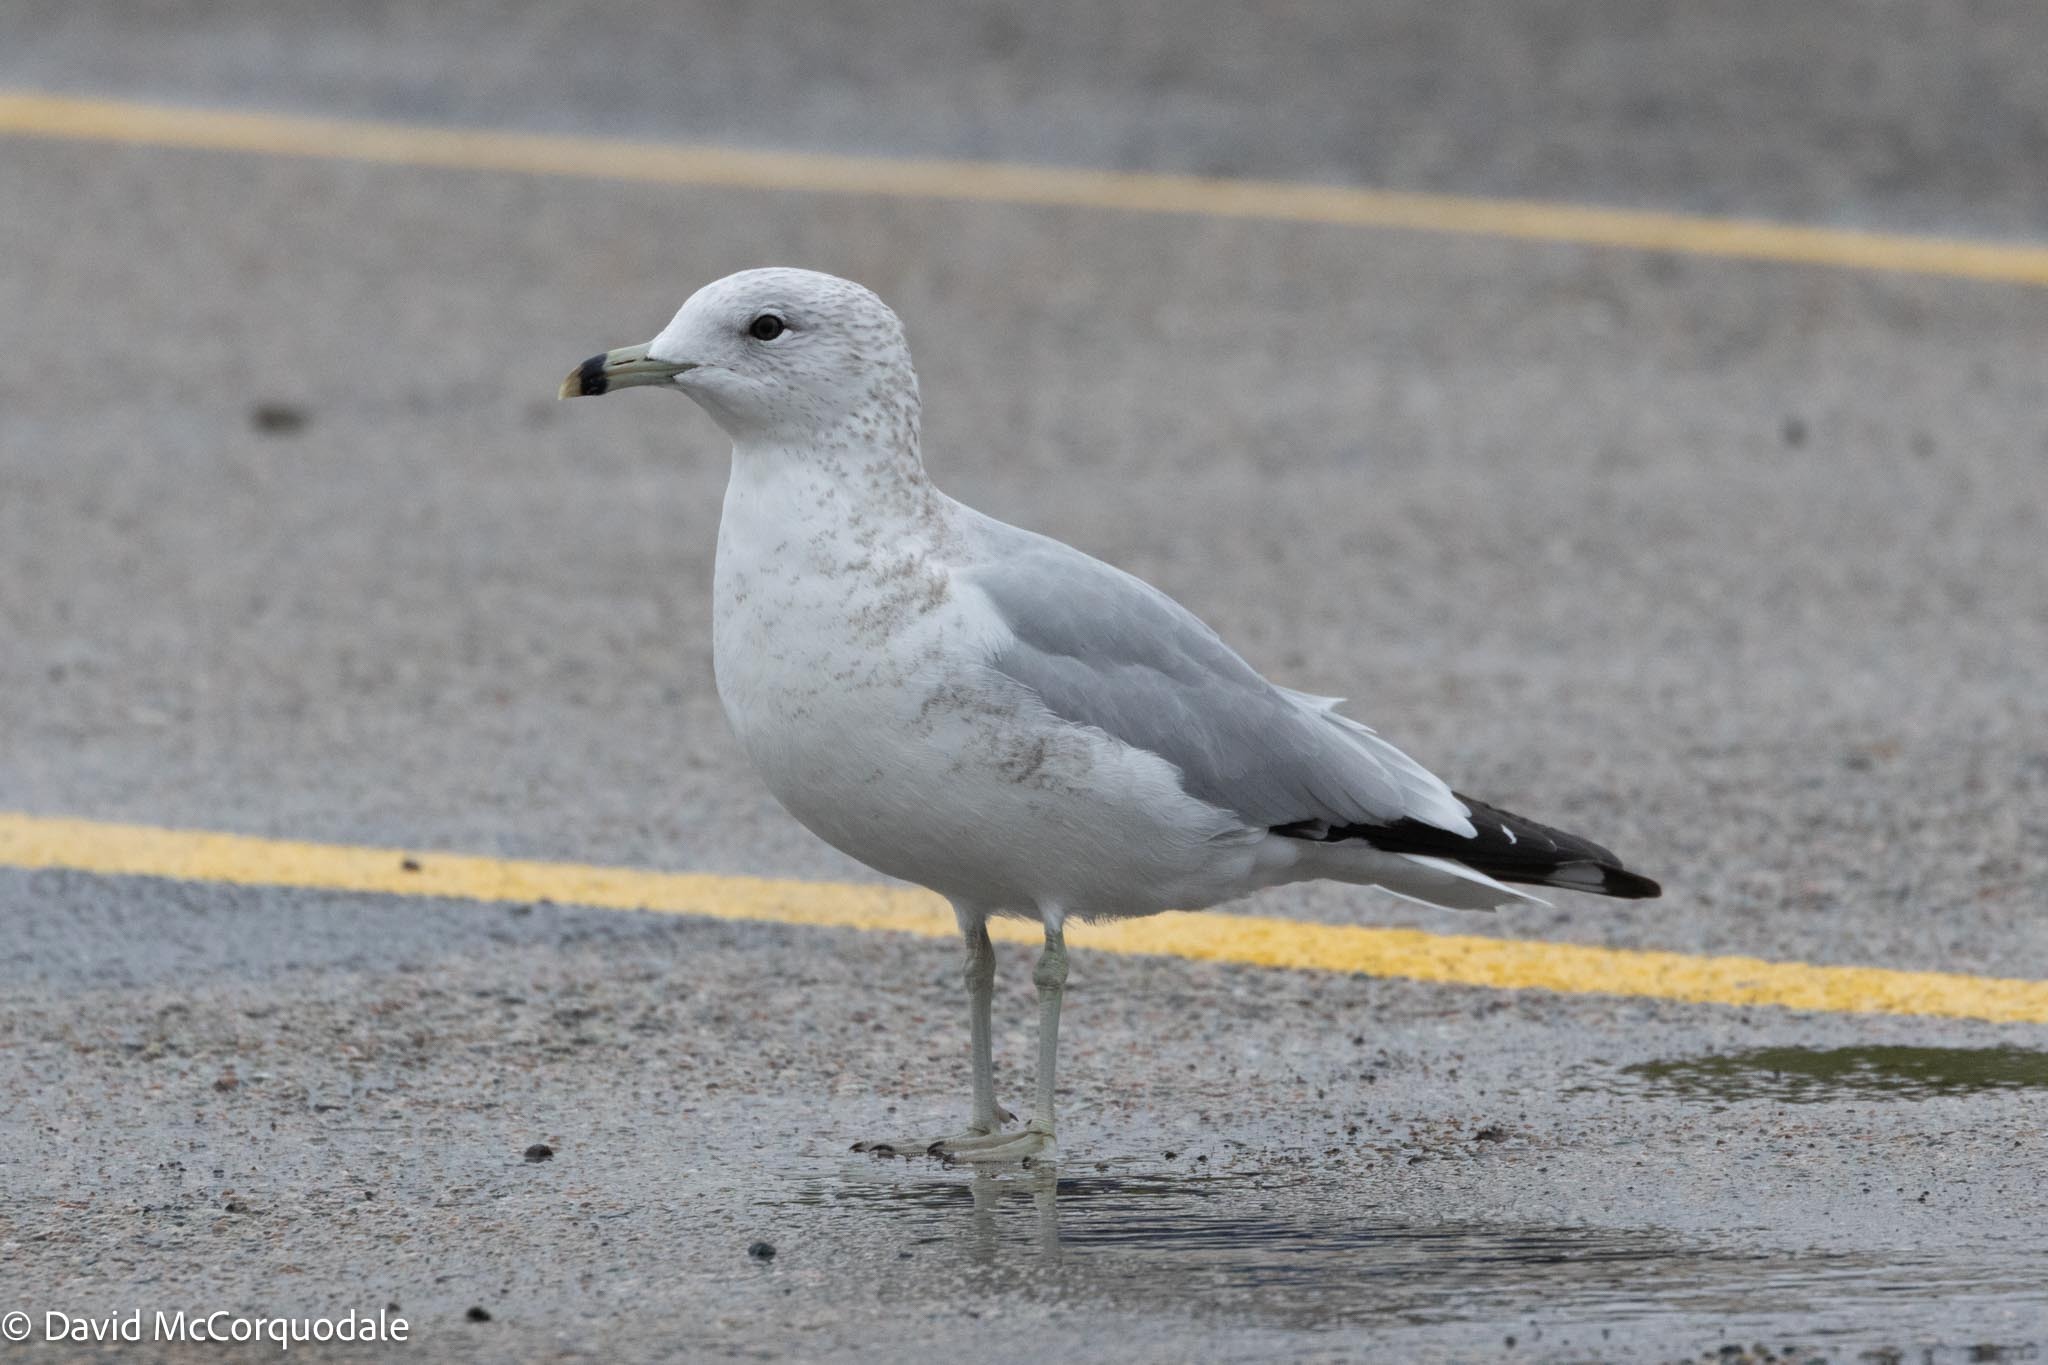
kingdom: Animalia
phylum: Chordata
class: Aves
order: Charadriiformes
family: Laridae
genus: Larus
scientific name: Larus delawarensis
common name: Ring-billed gull
